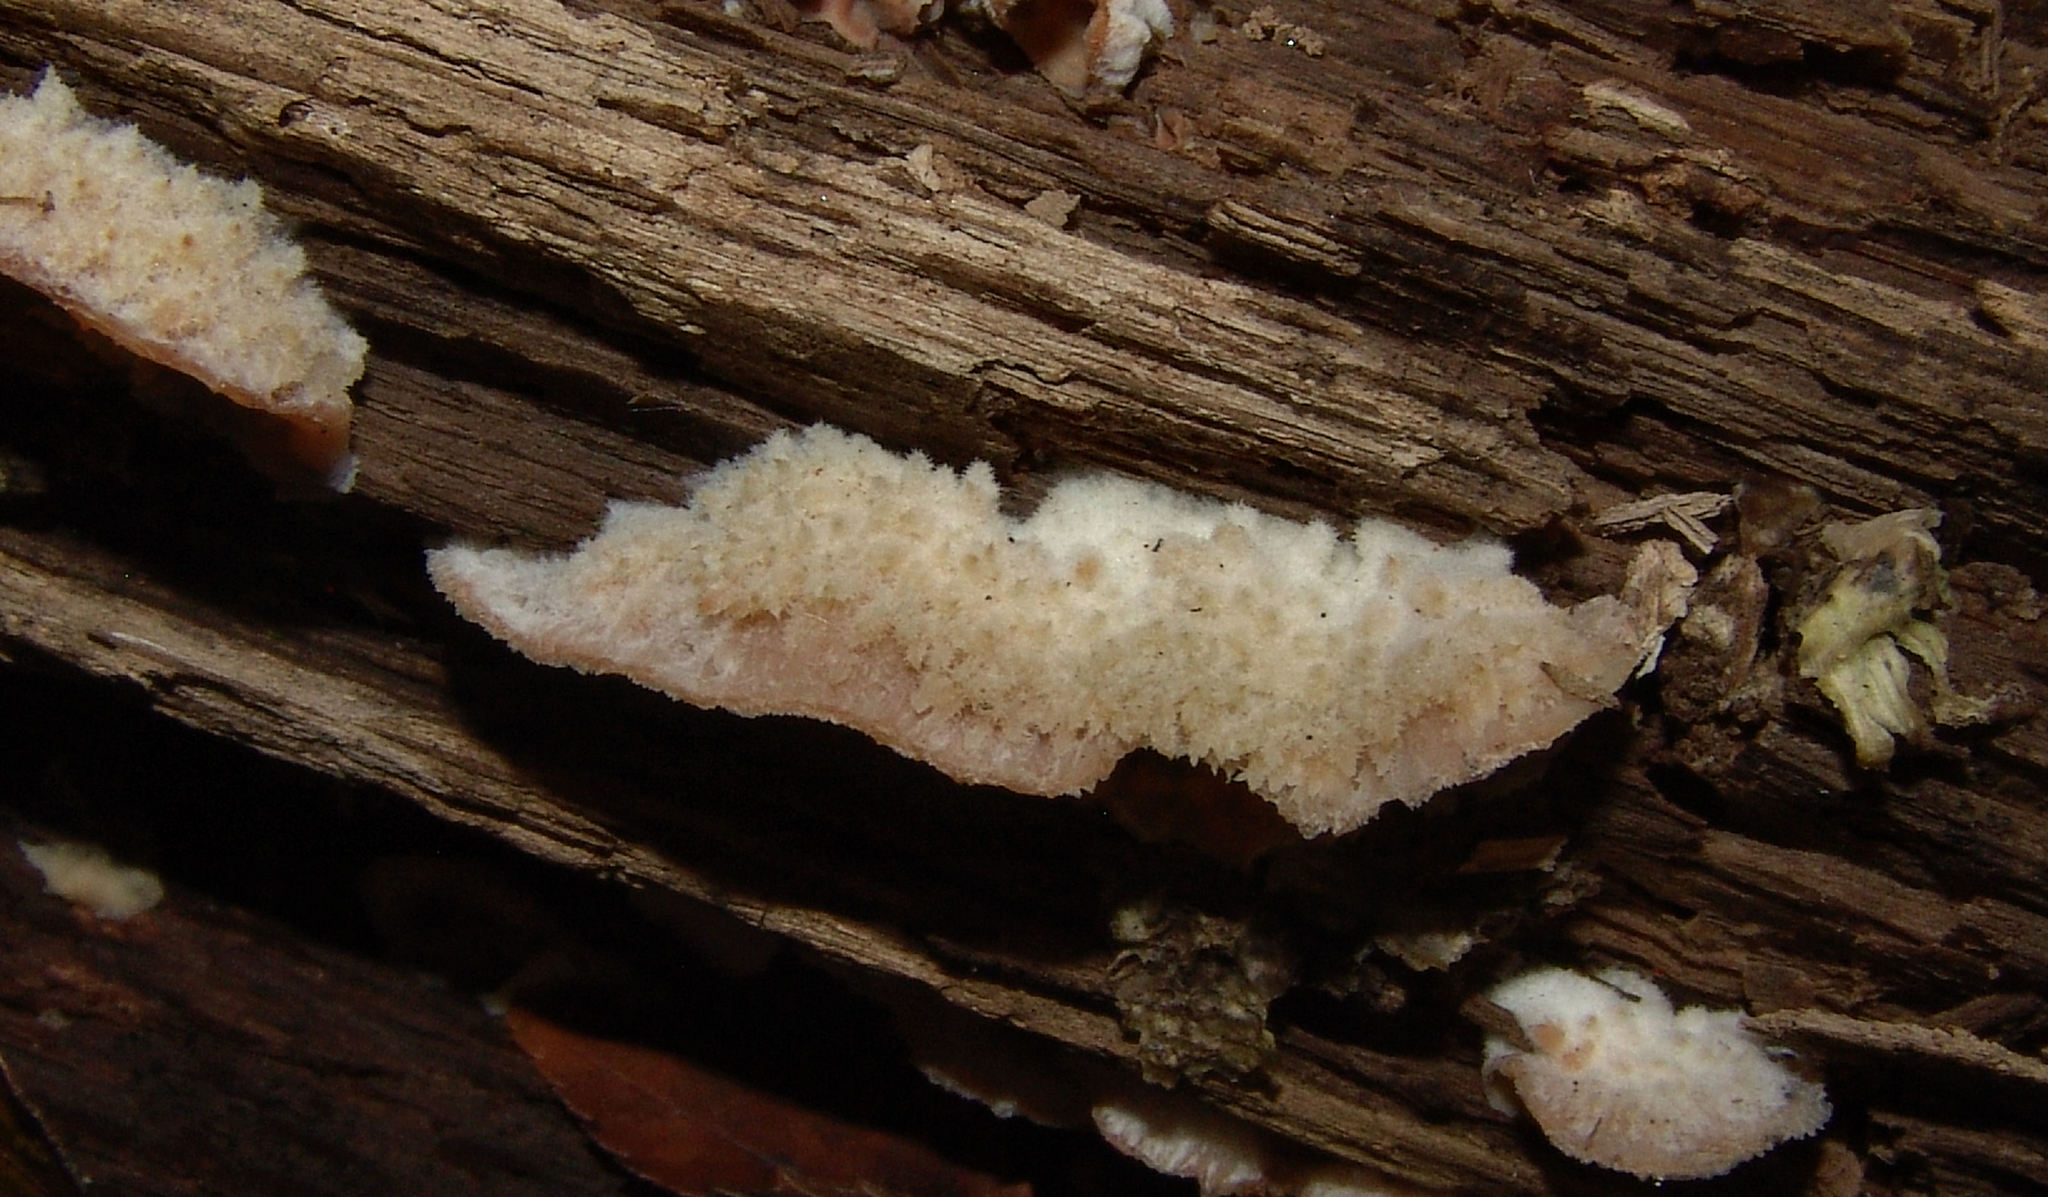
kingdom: Fungi
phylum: Basidiomycota
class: Agaricomycetes
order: Polyporales
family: Meruliaceae
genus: Phlebia
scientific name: Phlebia tremellosa
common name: Jelly rot
